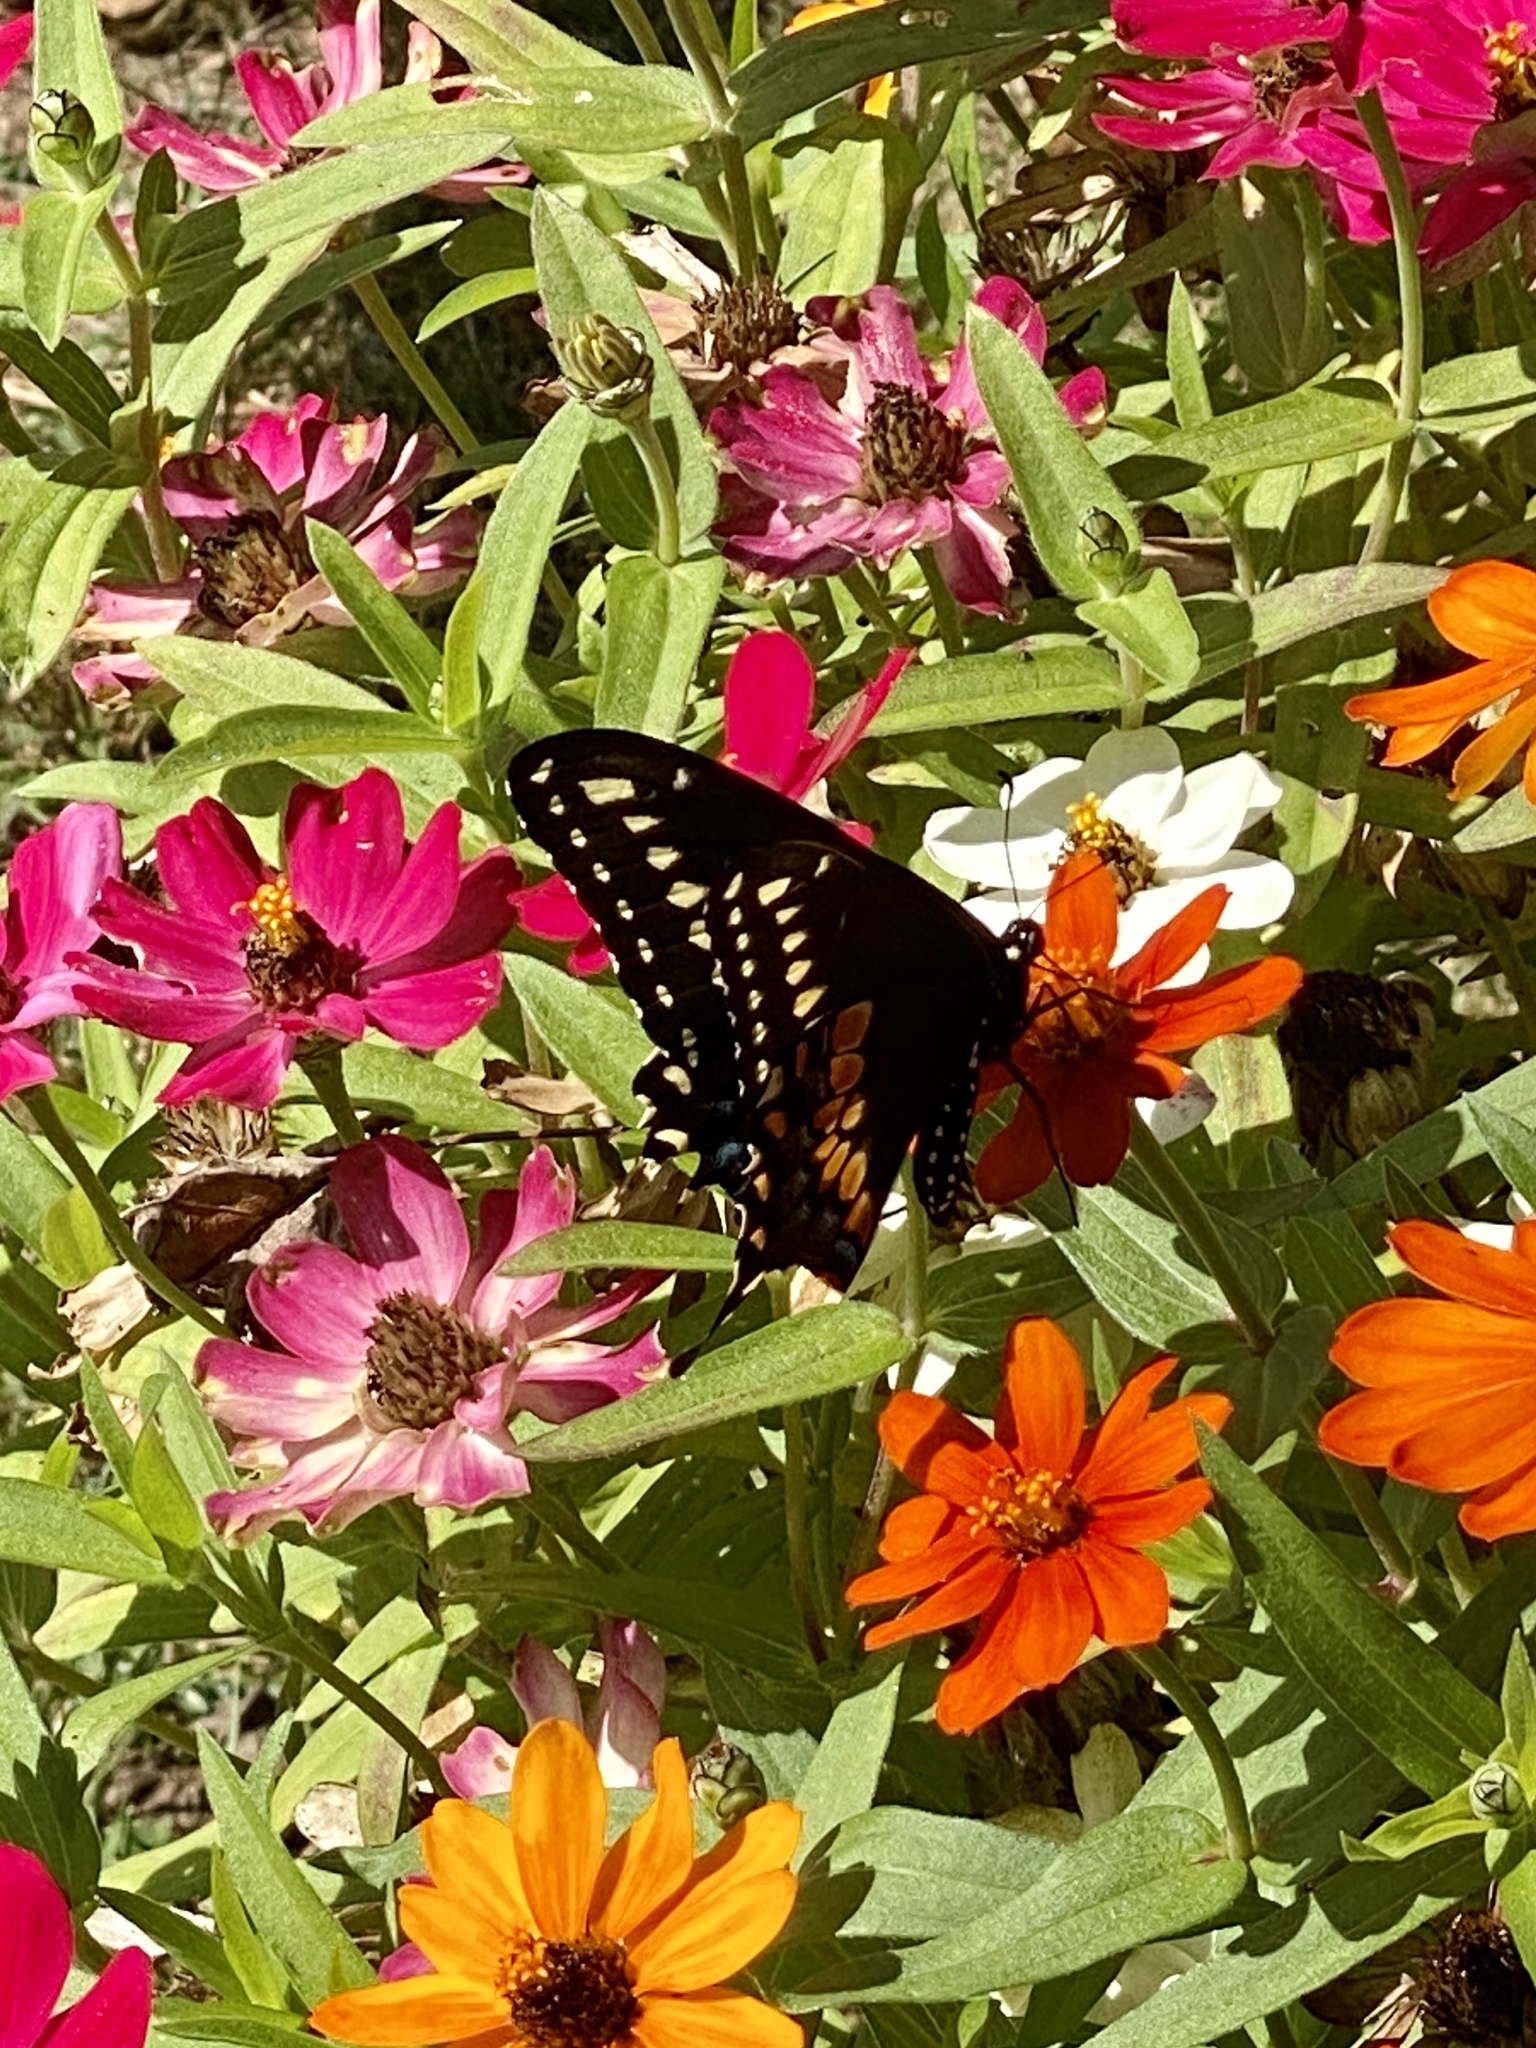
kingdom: Animalia
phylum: Arthropoda
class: Insecta
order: Lepidoptera
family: Papilionidae
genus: Papilio
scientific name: Papilio polyxenes
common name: Black swallowtail
